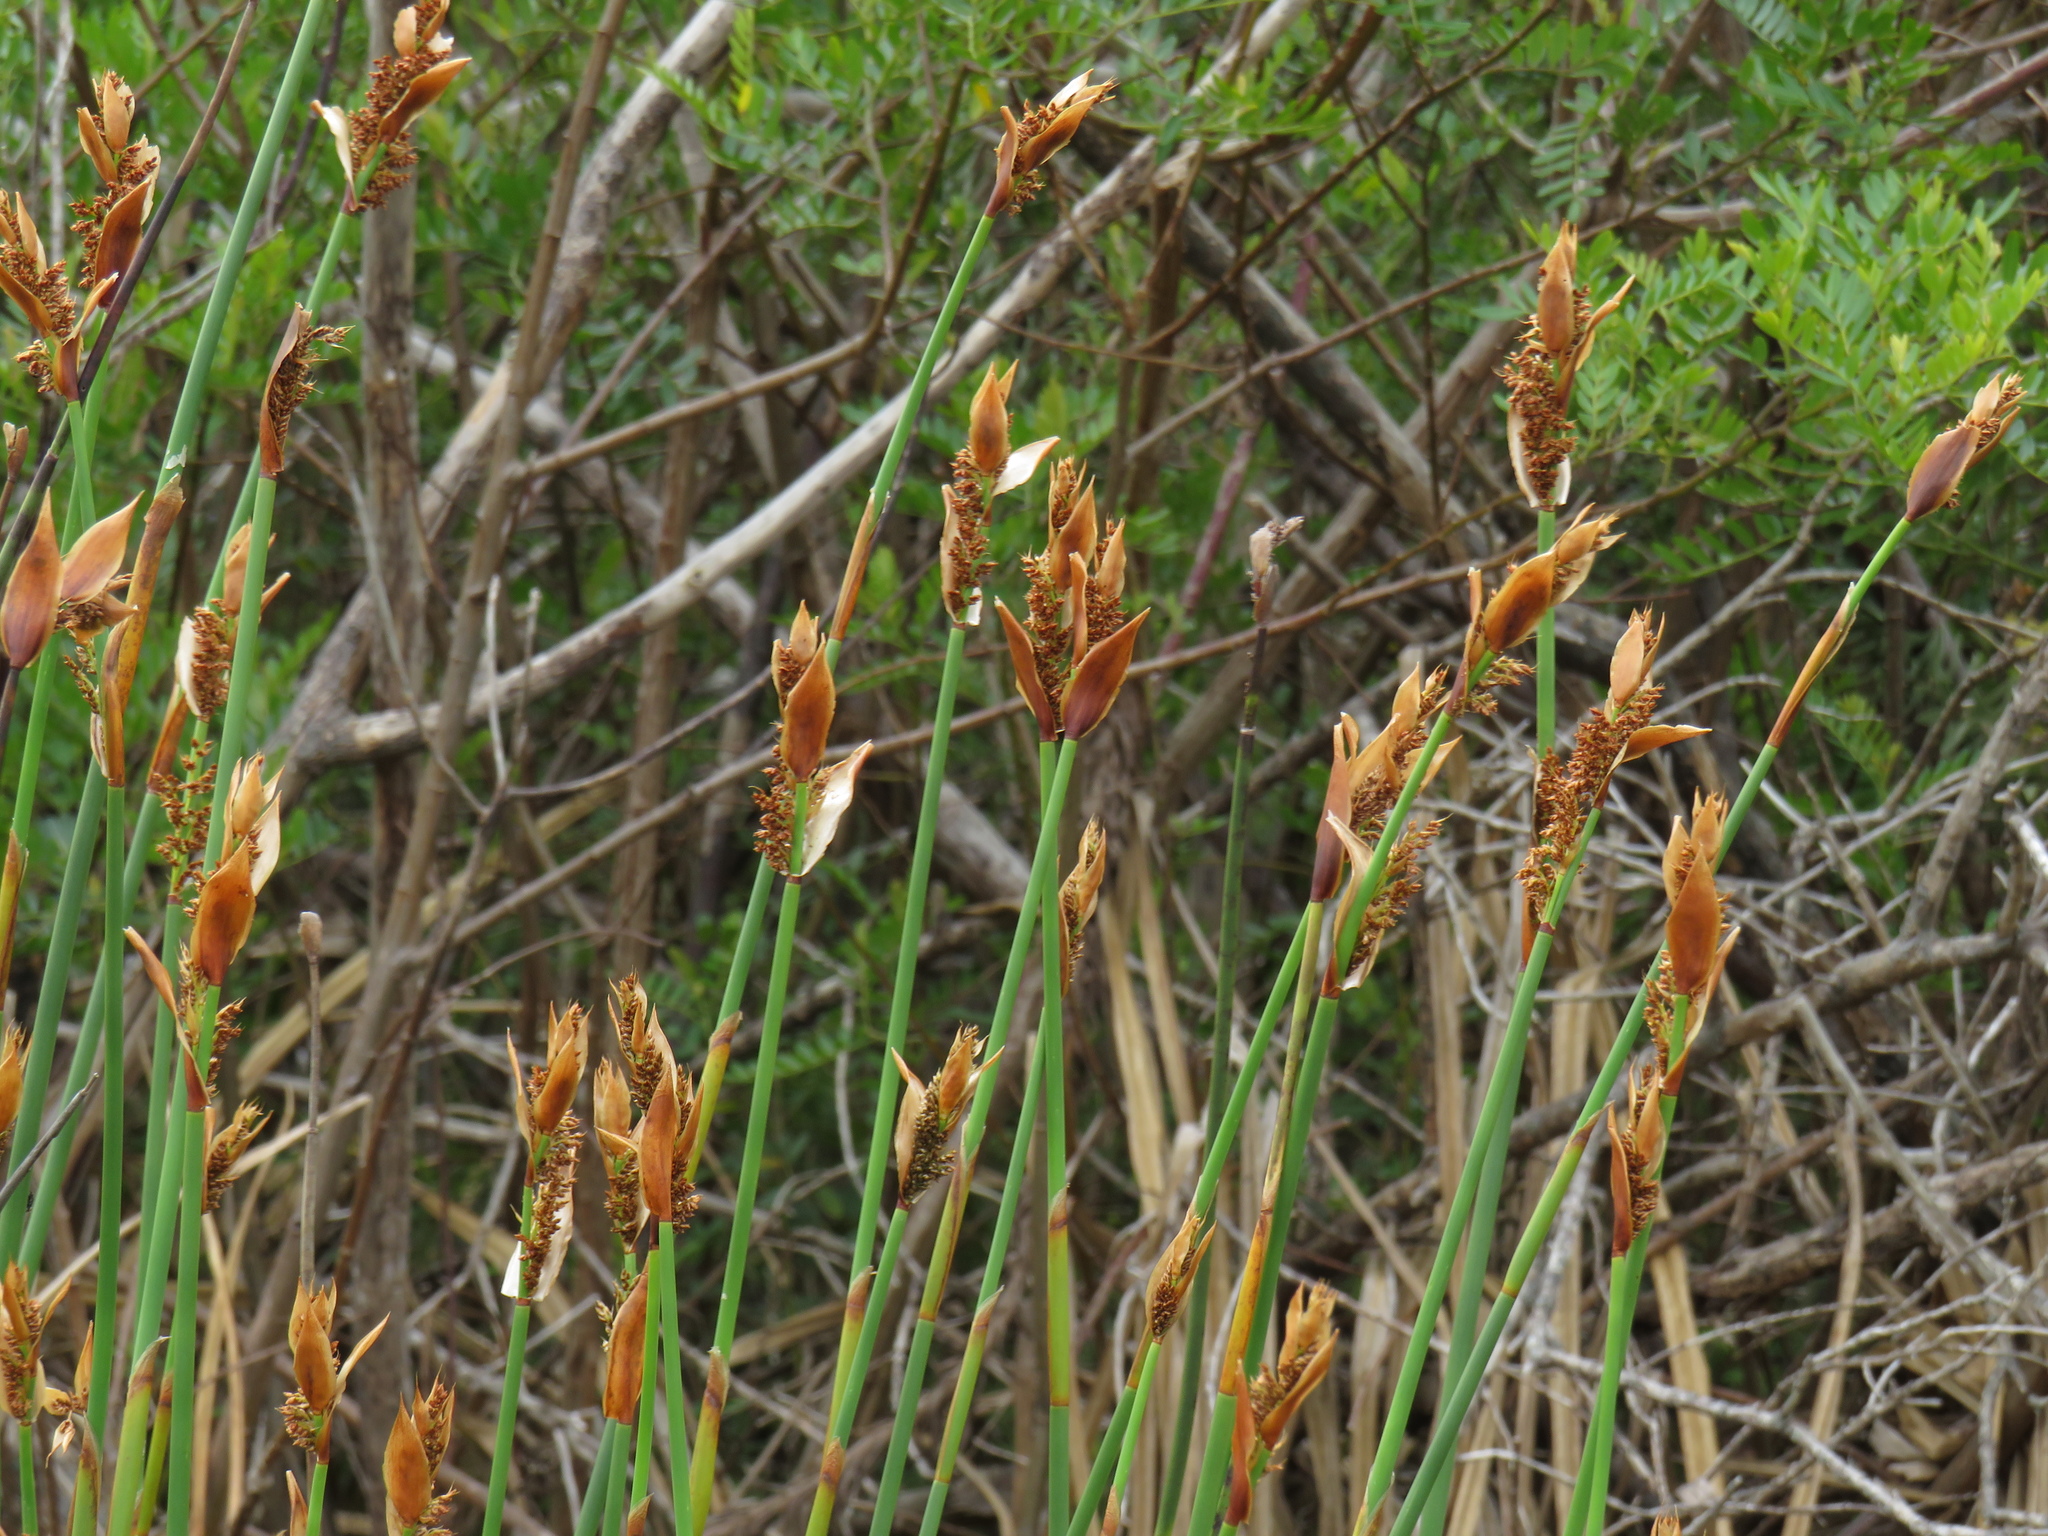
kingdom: Plantae
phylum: Tracheophyta
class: Liliopsida
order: Poales
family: Restionaceae
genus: Elegia
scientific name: Elegia mucronata
